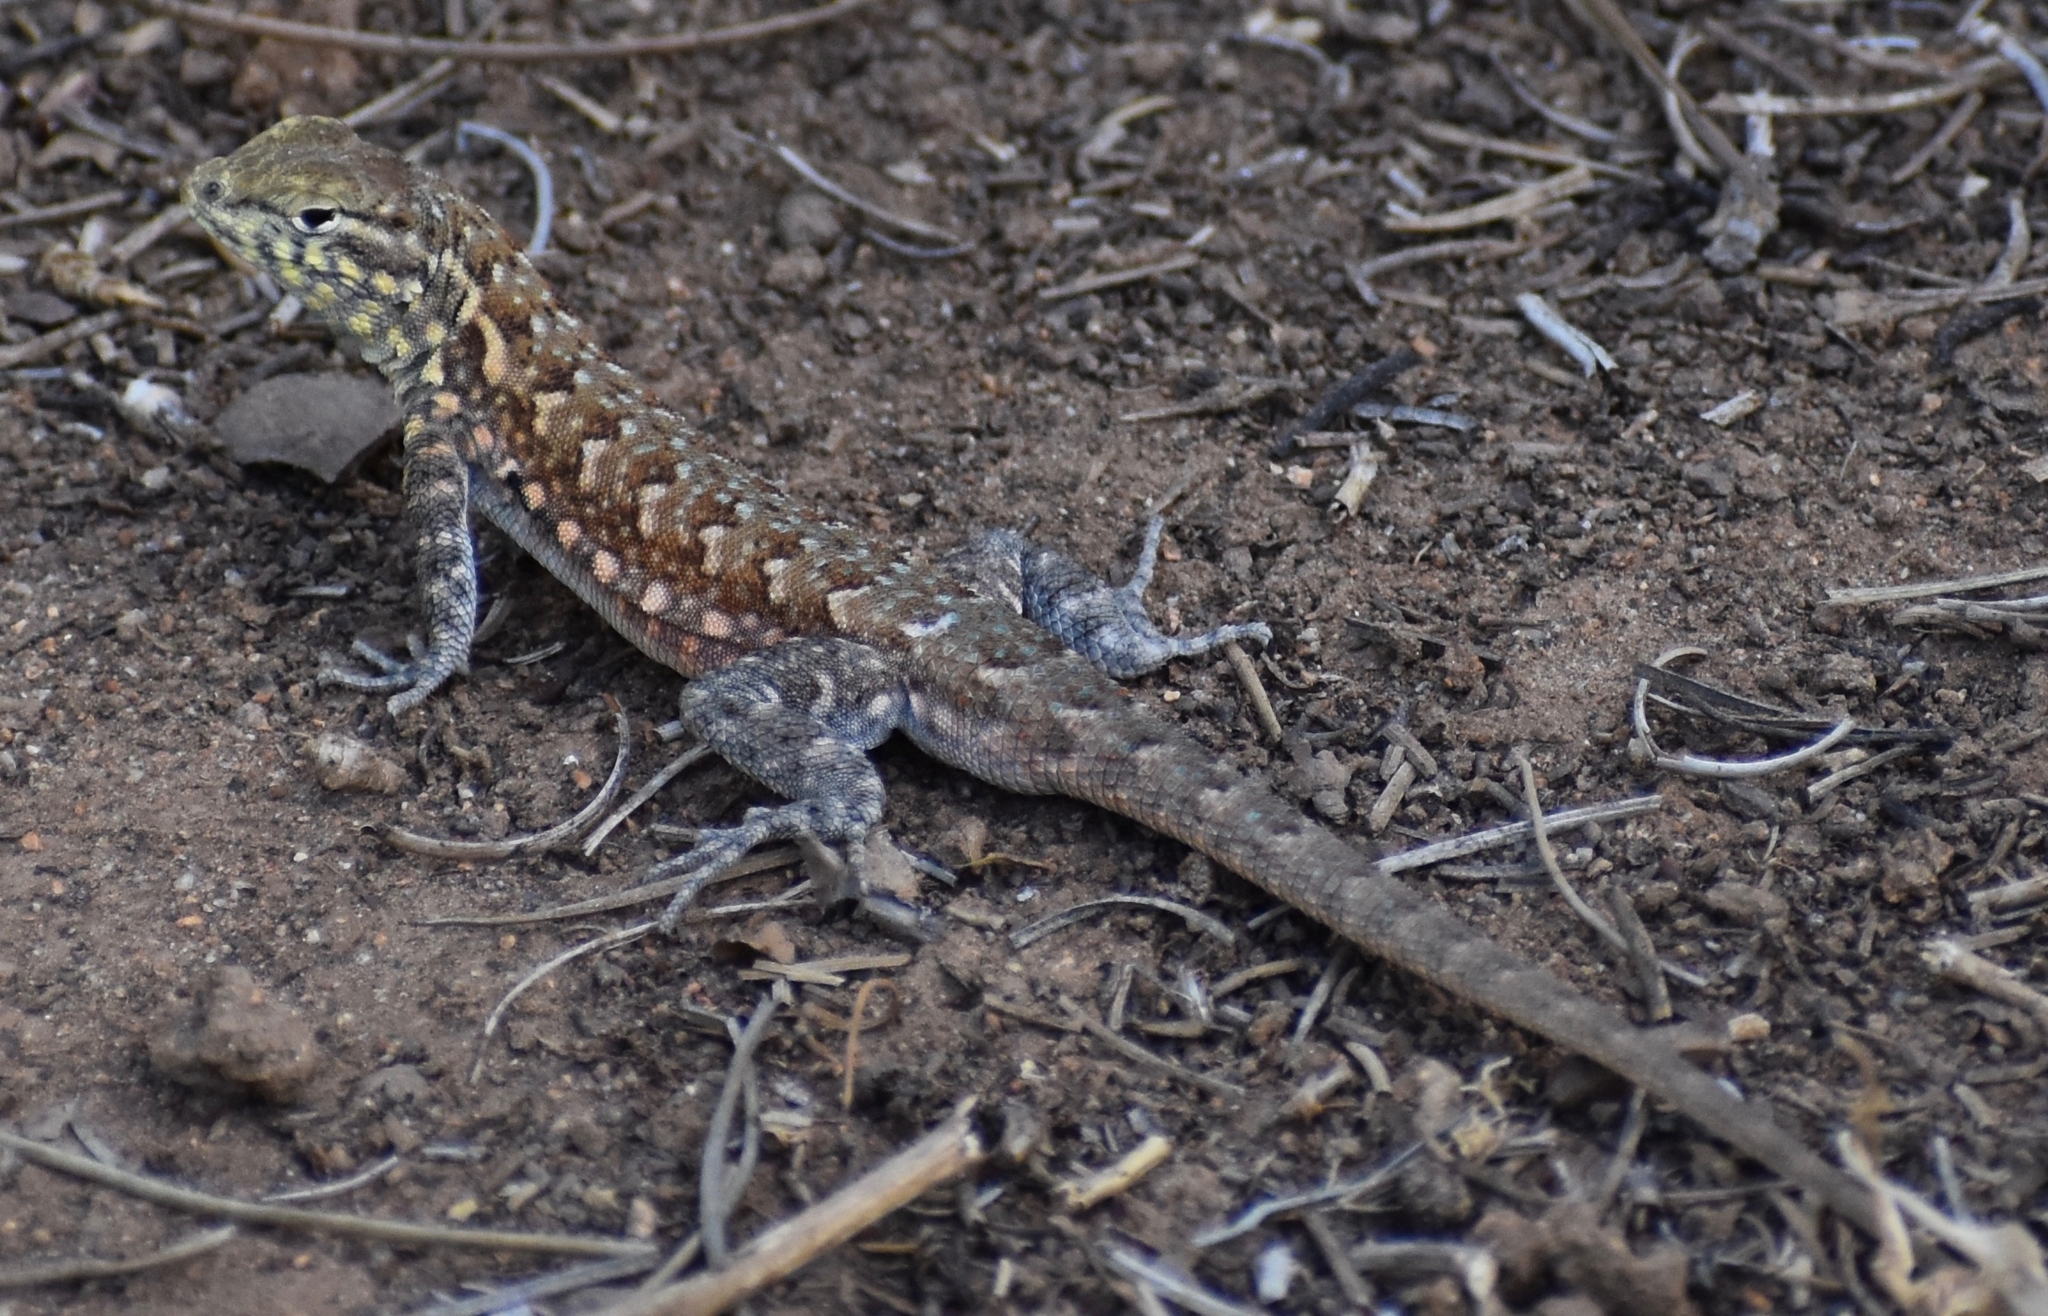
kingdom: Animalia
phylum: Chordata
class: Squamata
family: Phrynosomatidae
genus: Uta
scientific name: Uta stansburiana
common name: Side-blotched lizard
